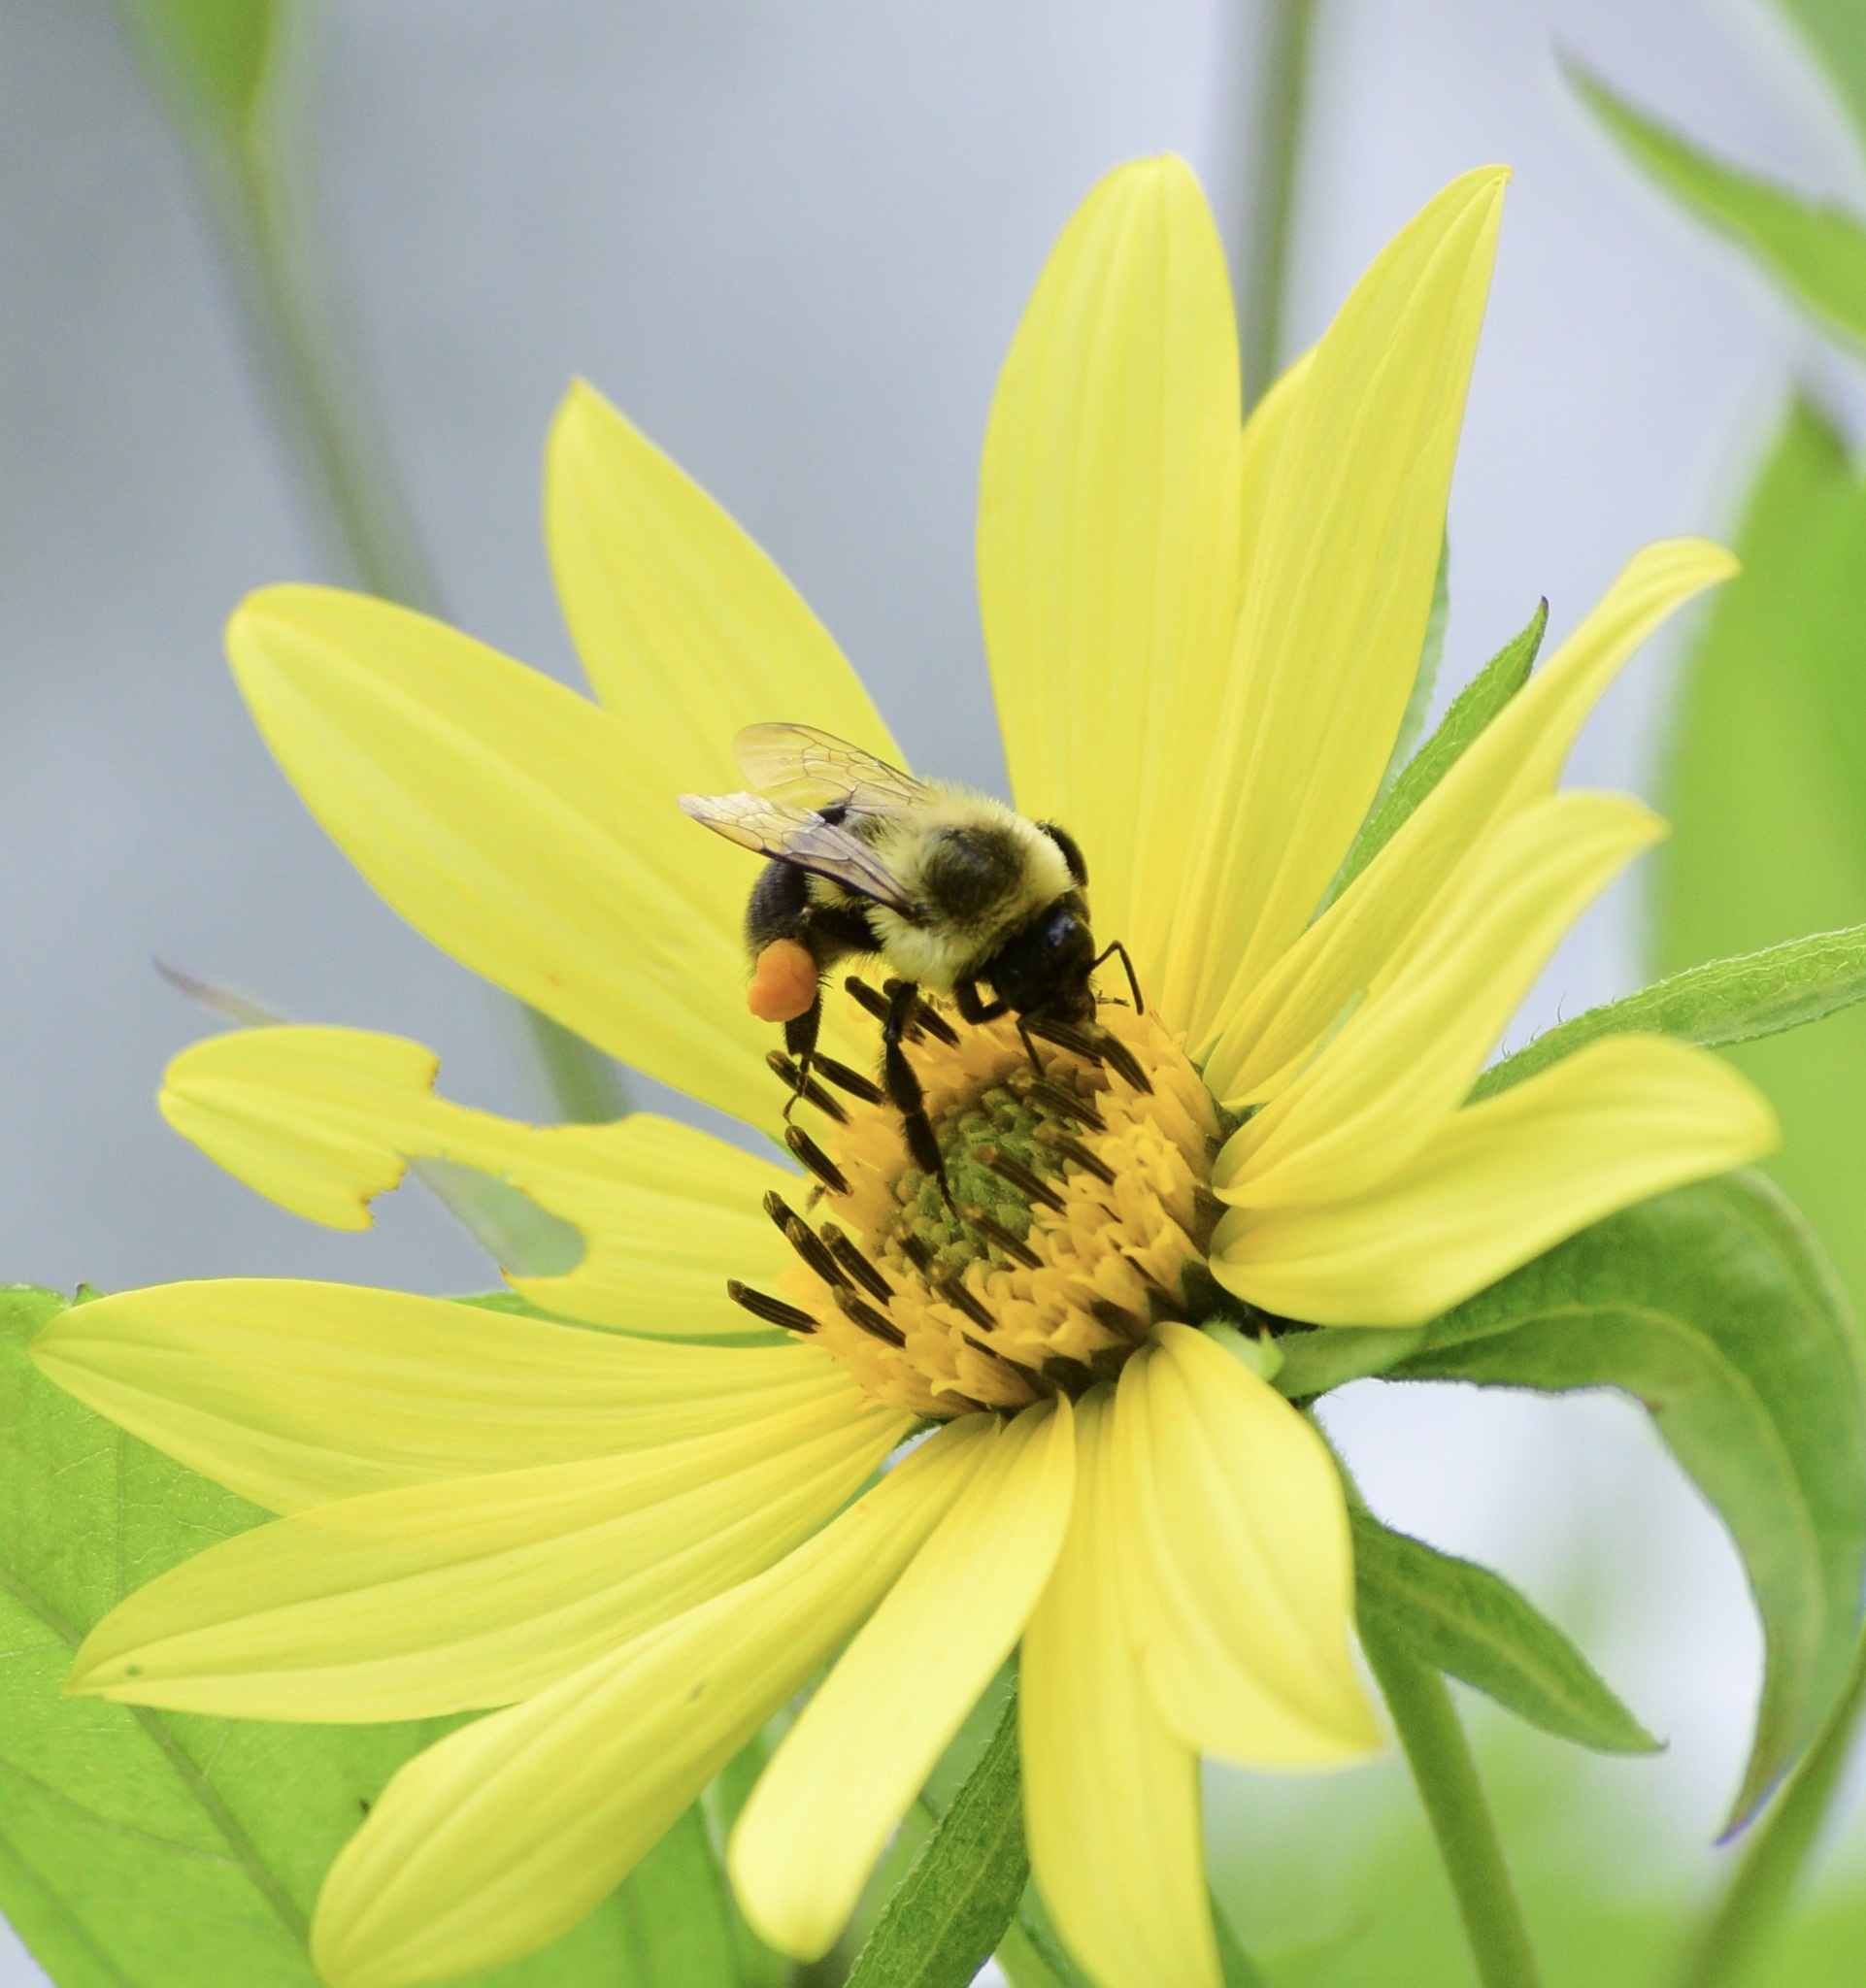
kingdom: Animalia
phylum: Arthropoda
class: Insecta
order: Hymenoptera
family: Apidae
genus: Bombus
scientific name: Bombus impatiens
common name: Common eastern bumble bee
